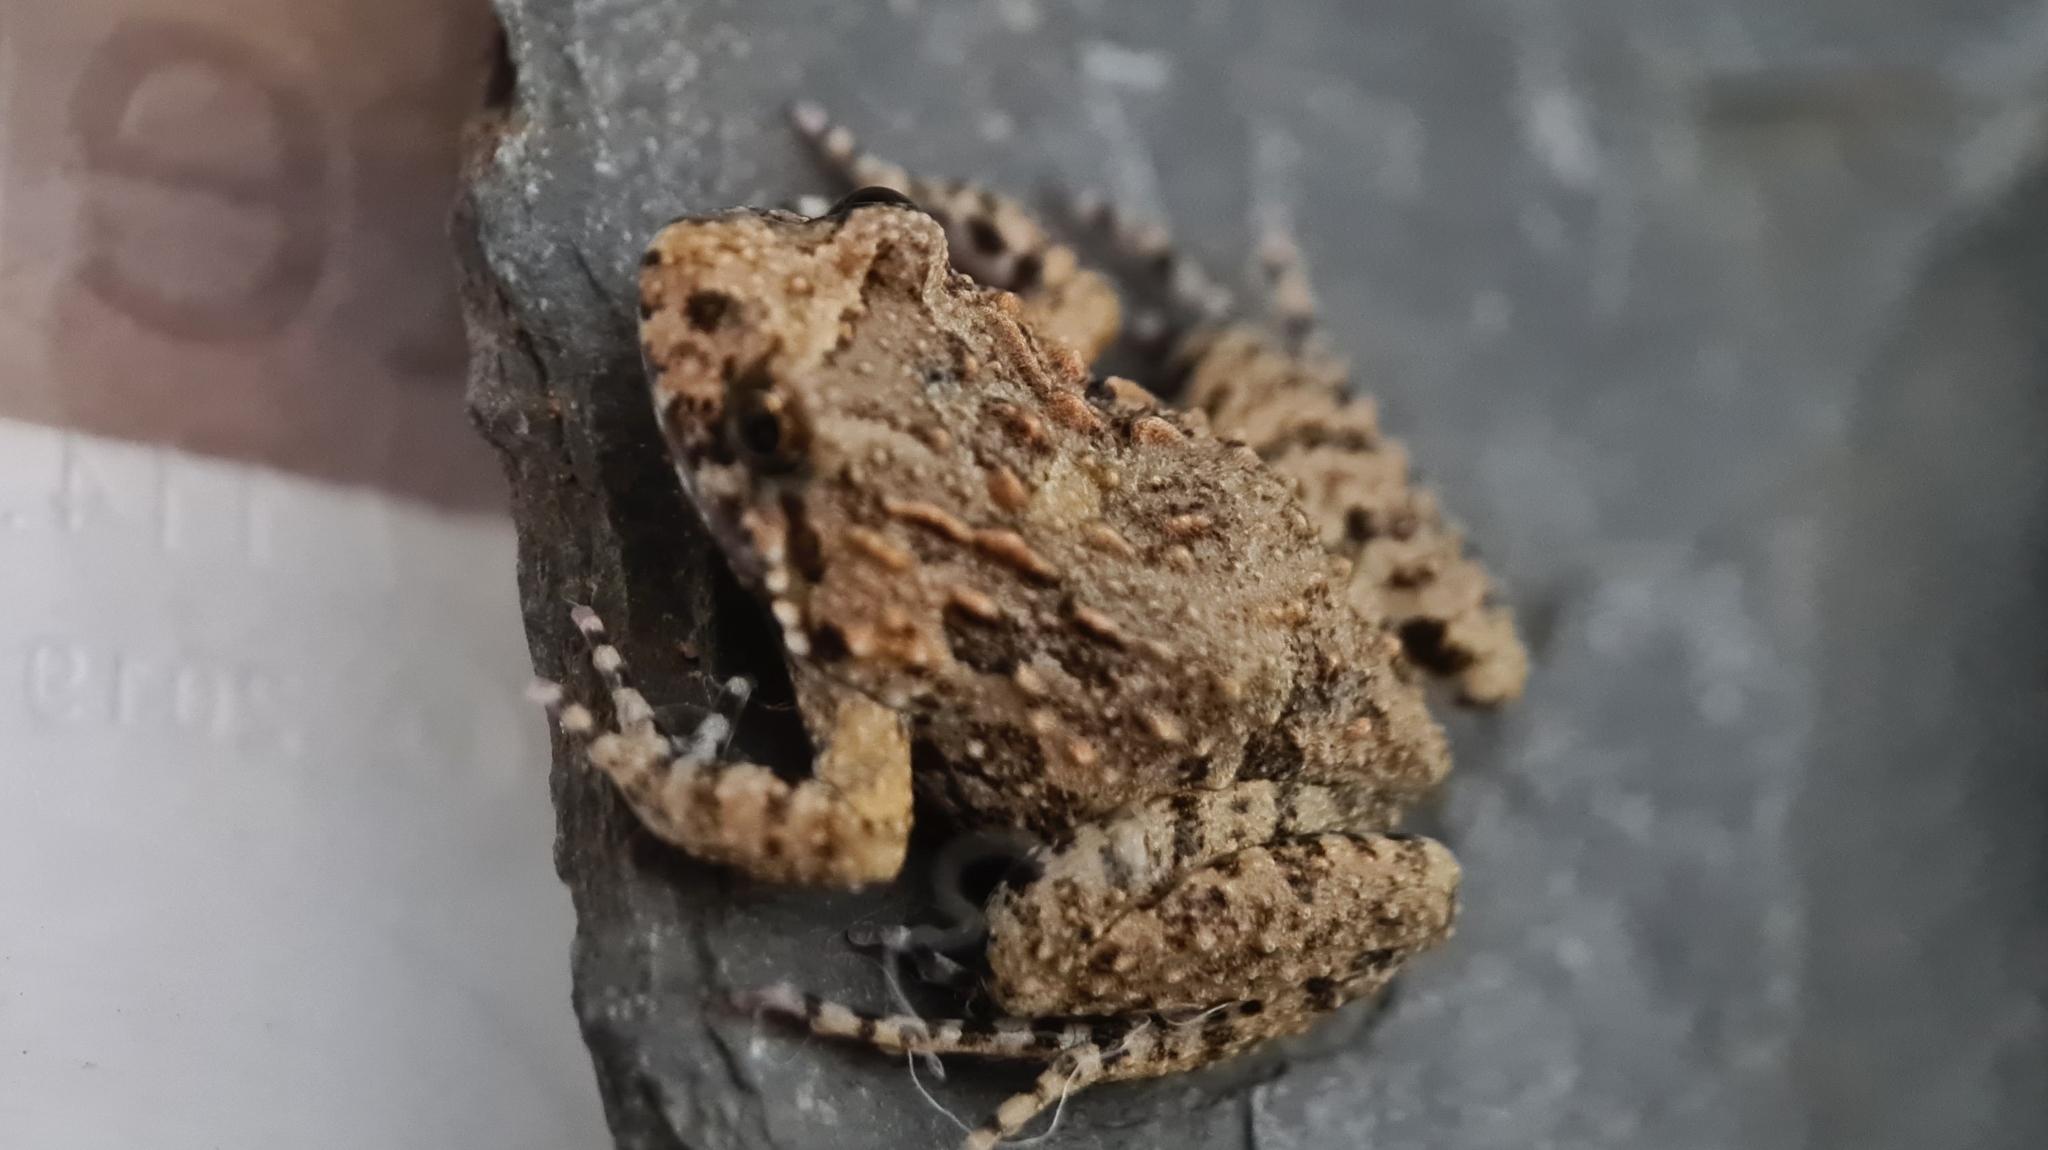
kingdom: Animalia
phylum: Chordata
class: Amphibia
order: Anura
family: Limnodynastidae
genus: Adelotus
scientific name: Adelotus brevis
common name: Tusked frog
